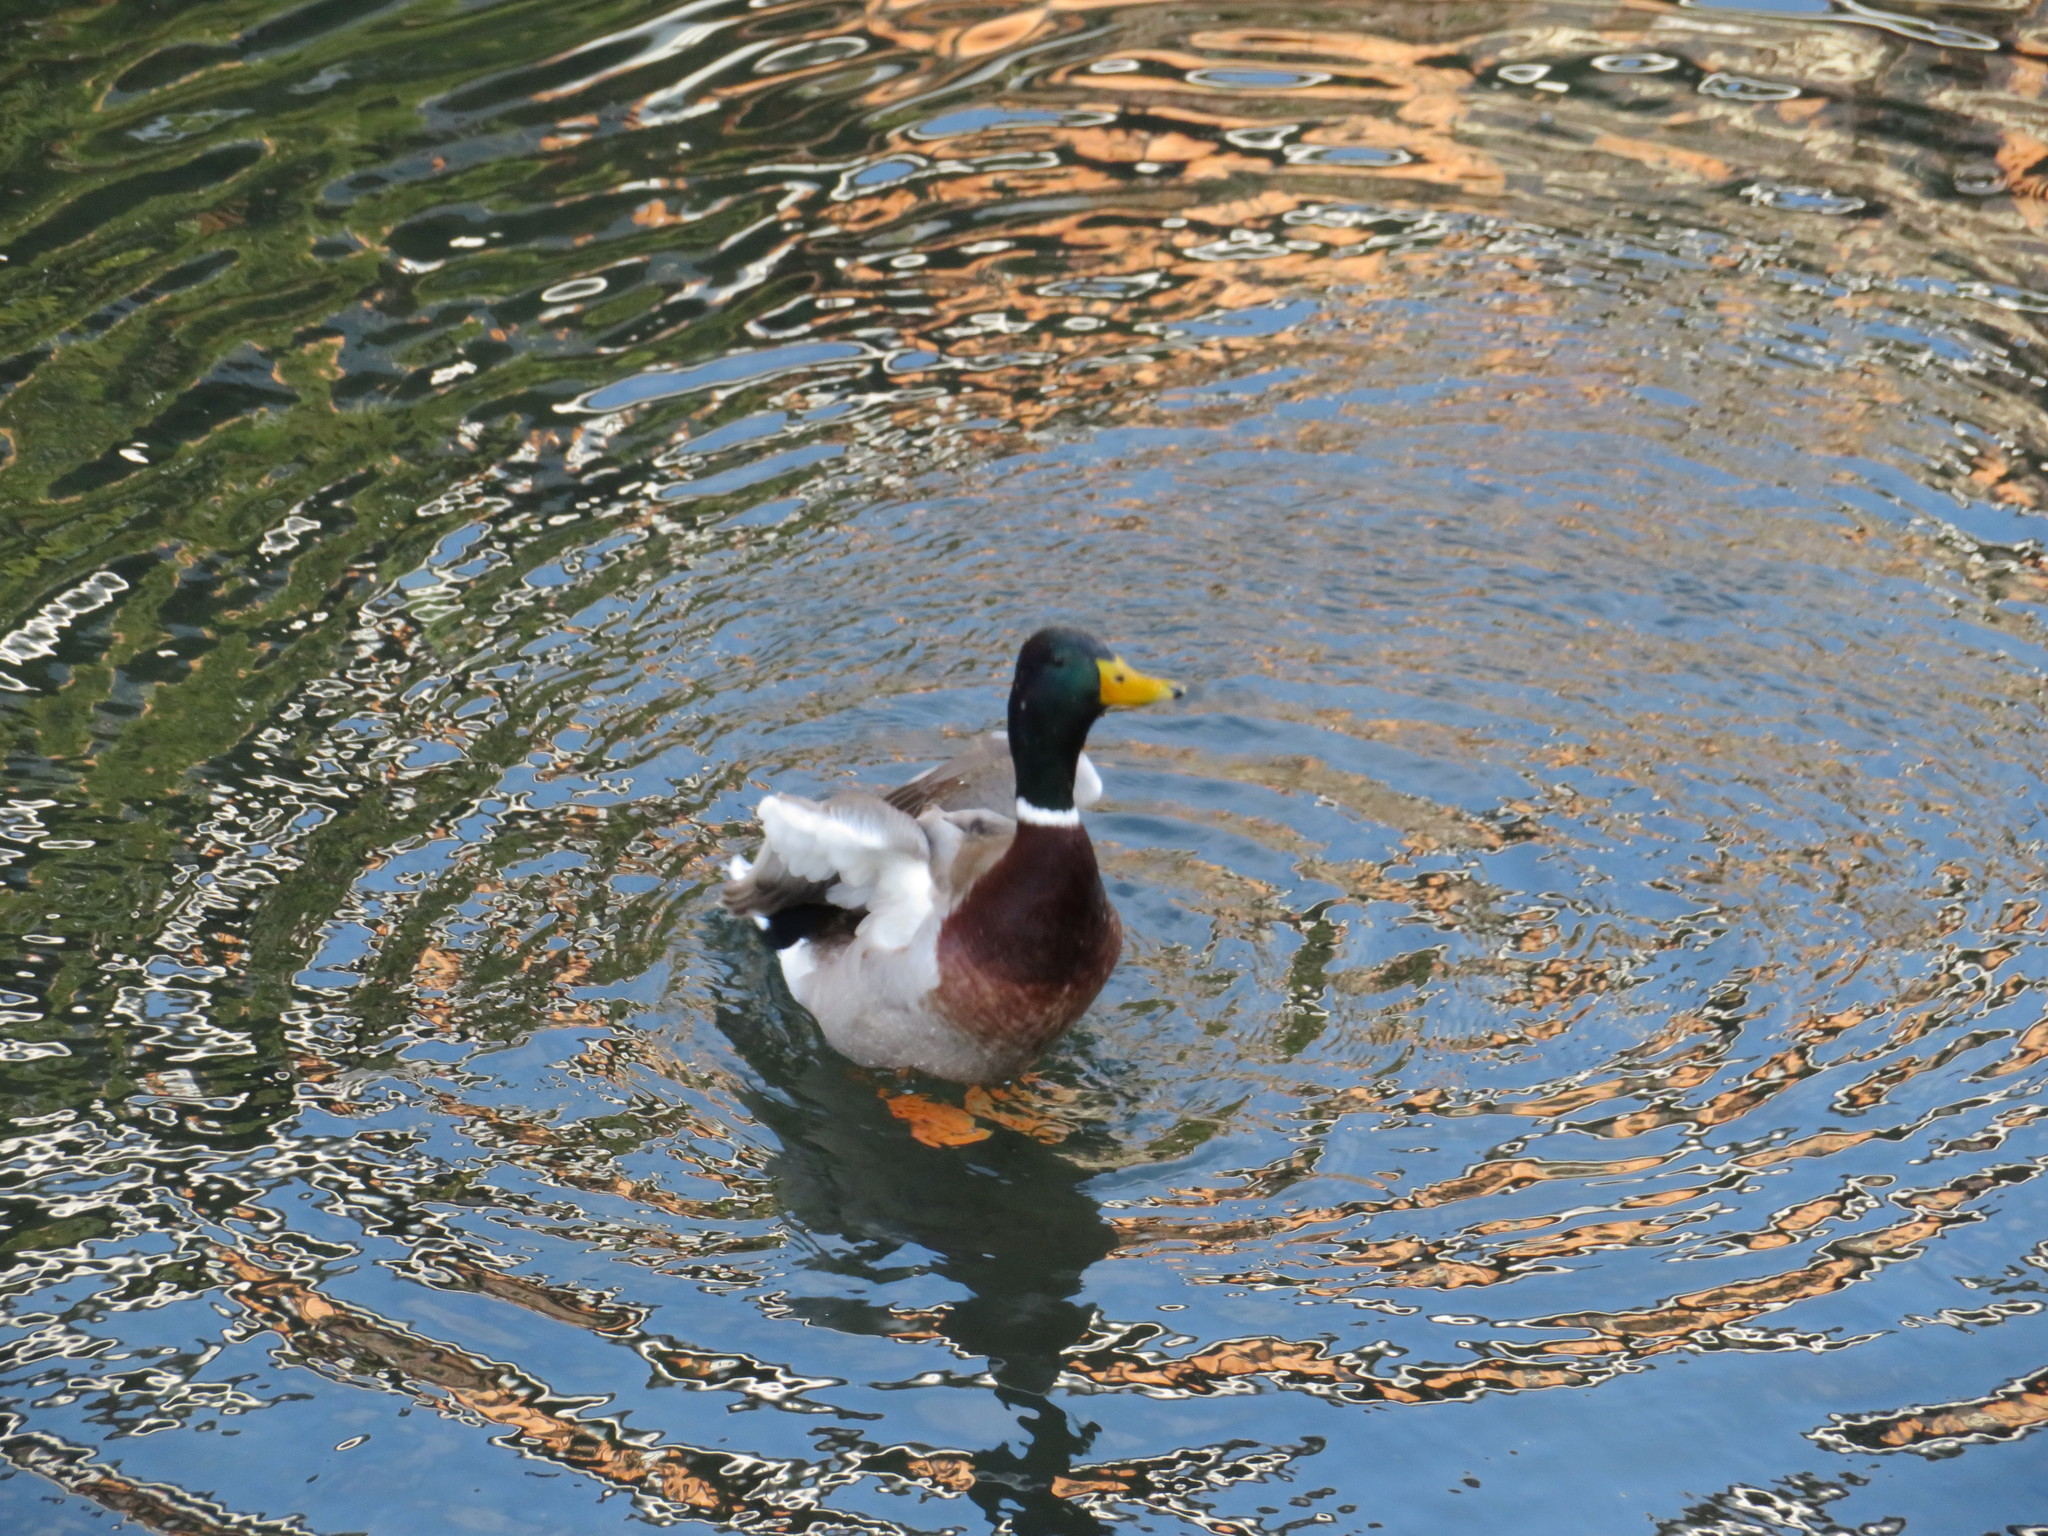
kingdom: Animalia
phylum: Chordata
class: Aves
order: Anseriformes
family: Anatidae
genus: Anas
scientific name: Anas platyrhynchos
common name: Mallard
